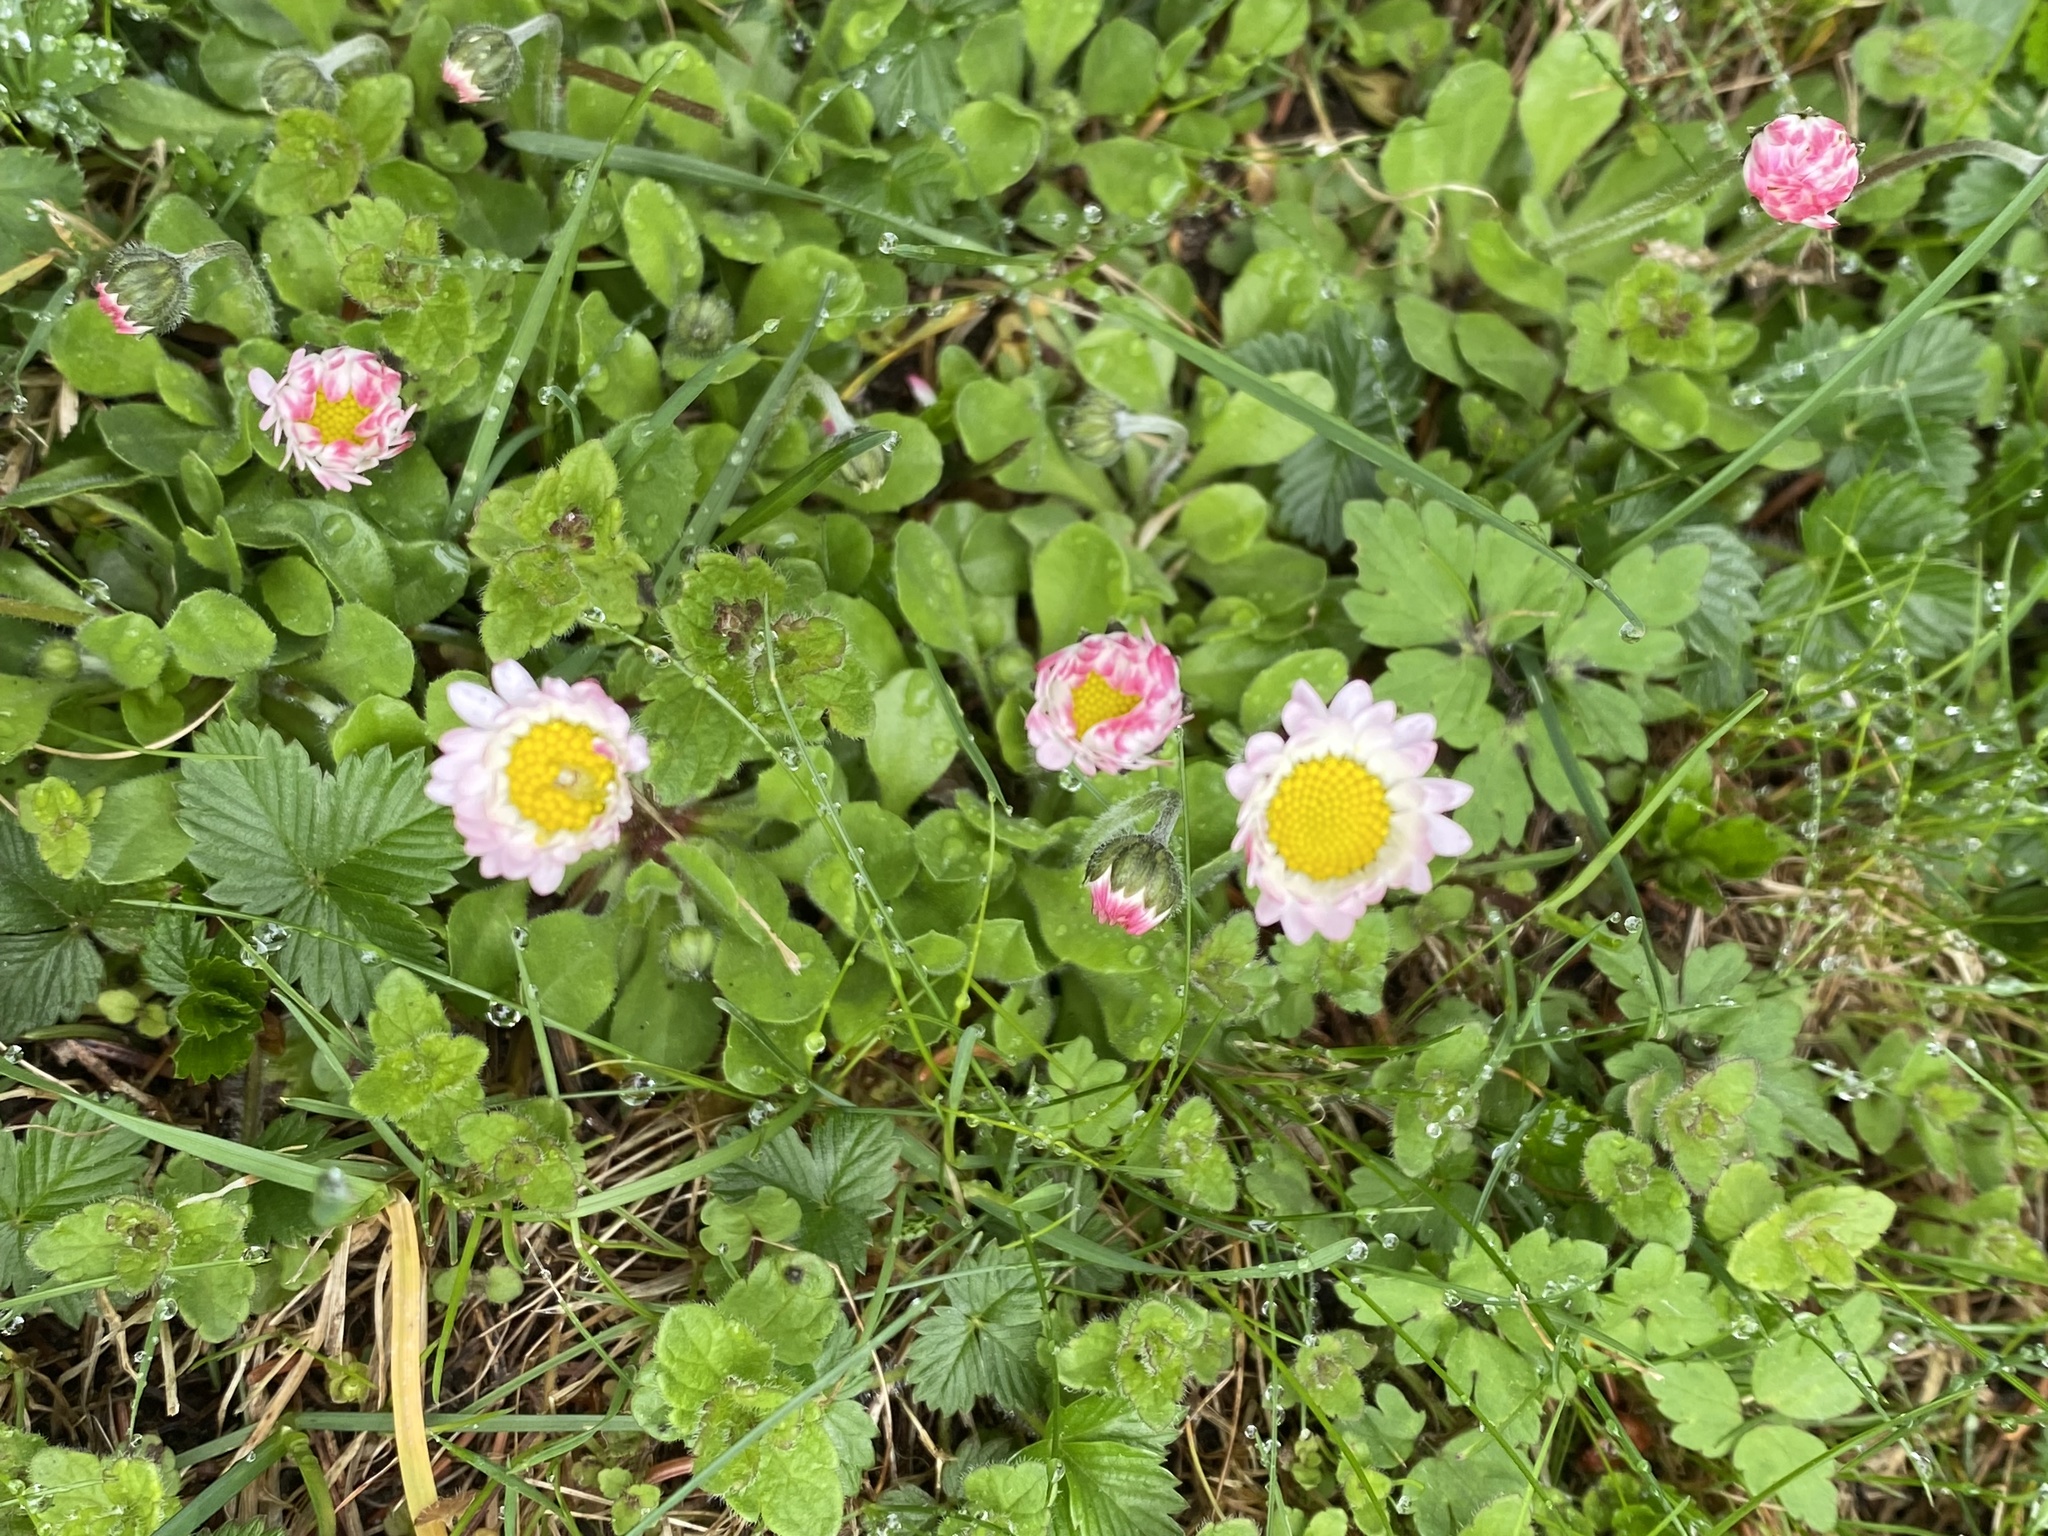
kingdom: Plantae
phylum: Tracheophyta
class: Magnoliopsida
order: Asterales
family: Asteraceae
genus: Bellis
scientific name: Bellis perennis
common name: Lawndaisy
